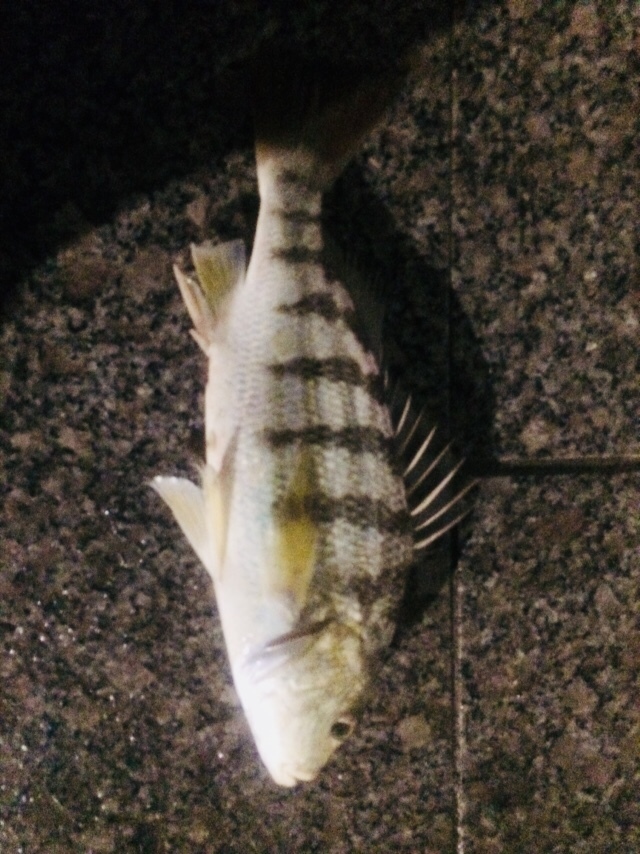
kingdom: Animalia
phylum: Chordata
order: Perciformes
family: Haemulidae
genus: Conodon
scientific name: Conodon nobilis
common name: Barred grunt
